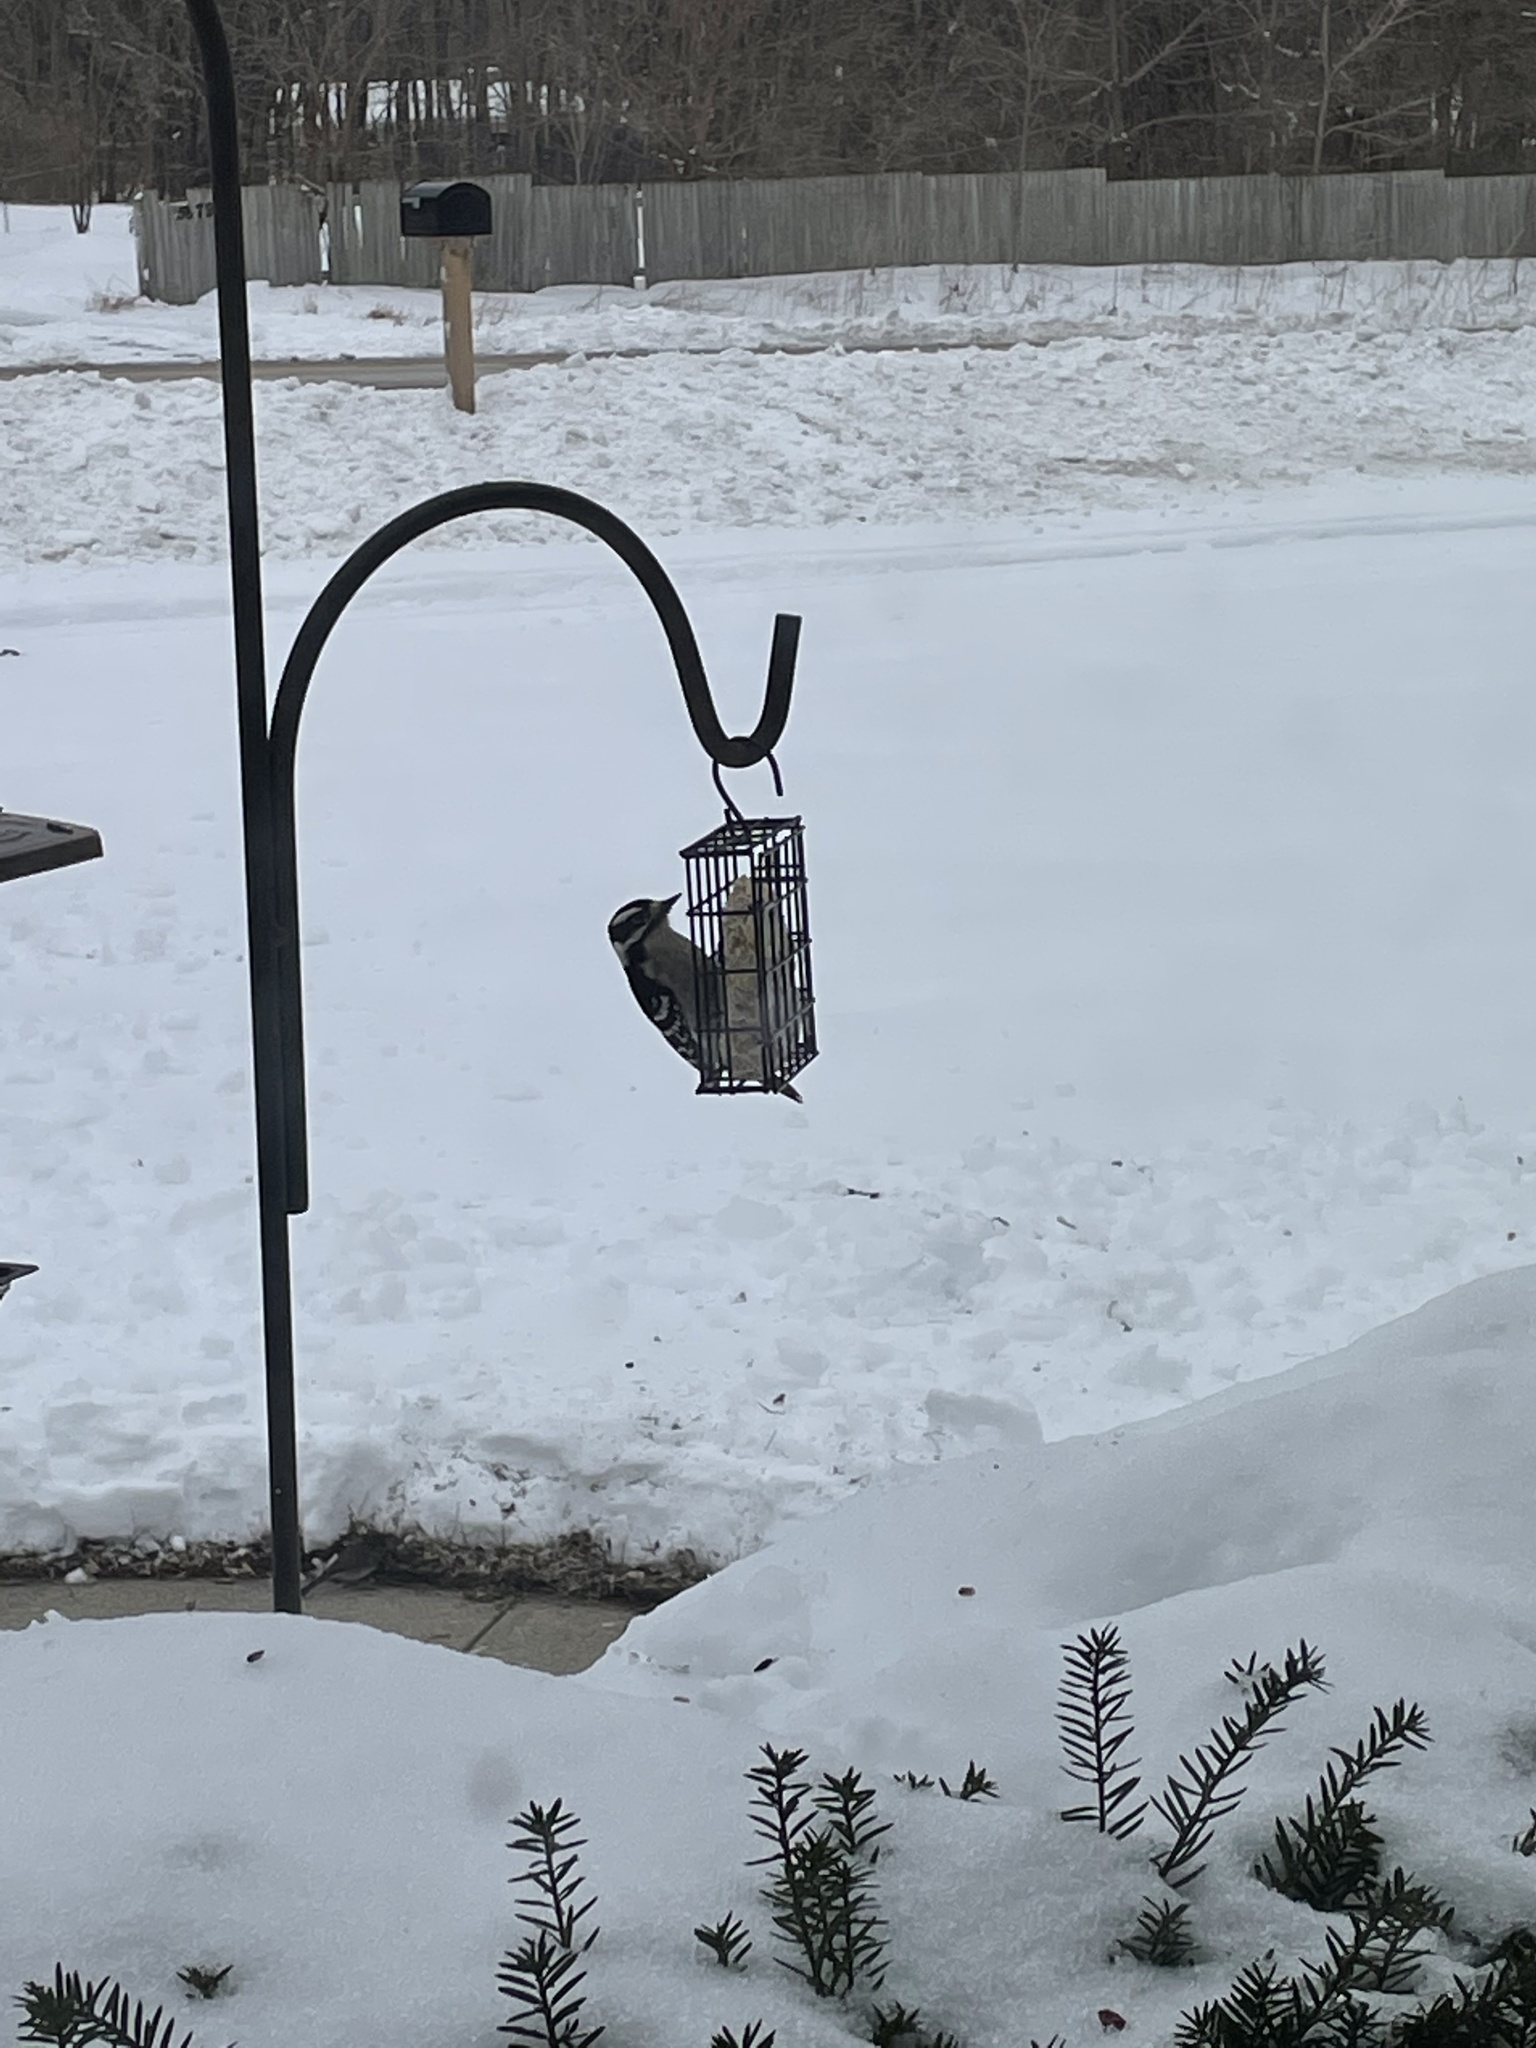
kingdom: Animalia
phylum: Chordata
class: Aves
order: Piciformes
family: Picidae
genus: Dryobates
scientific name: Dryobates pubescens
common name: Downy woodpecker
